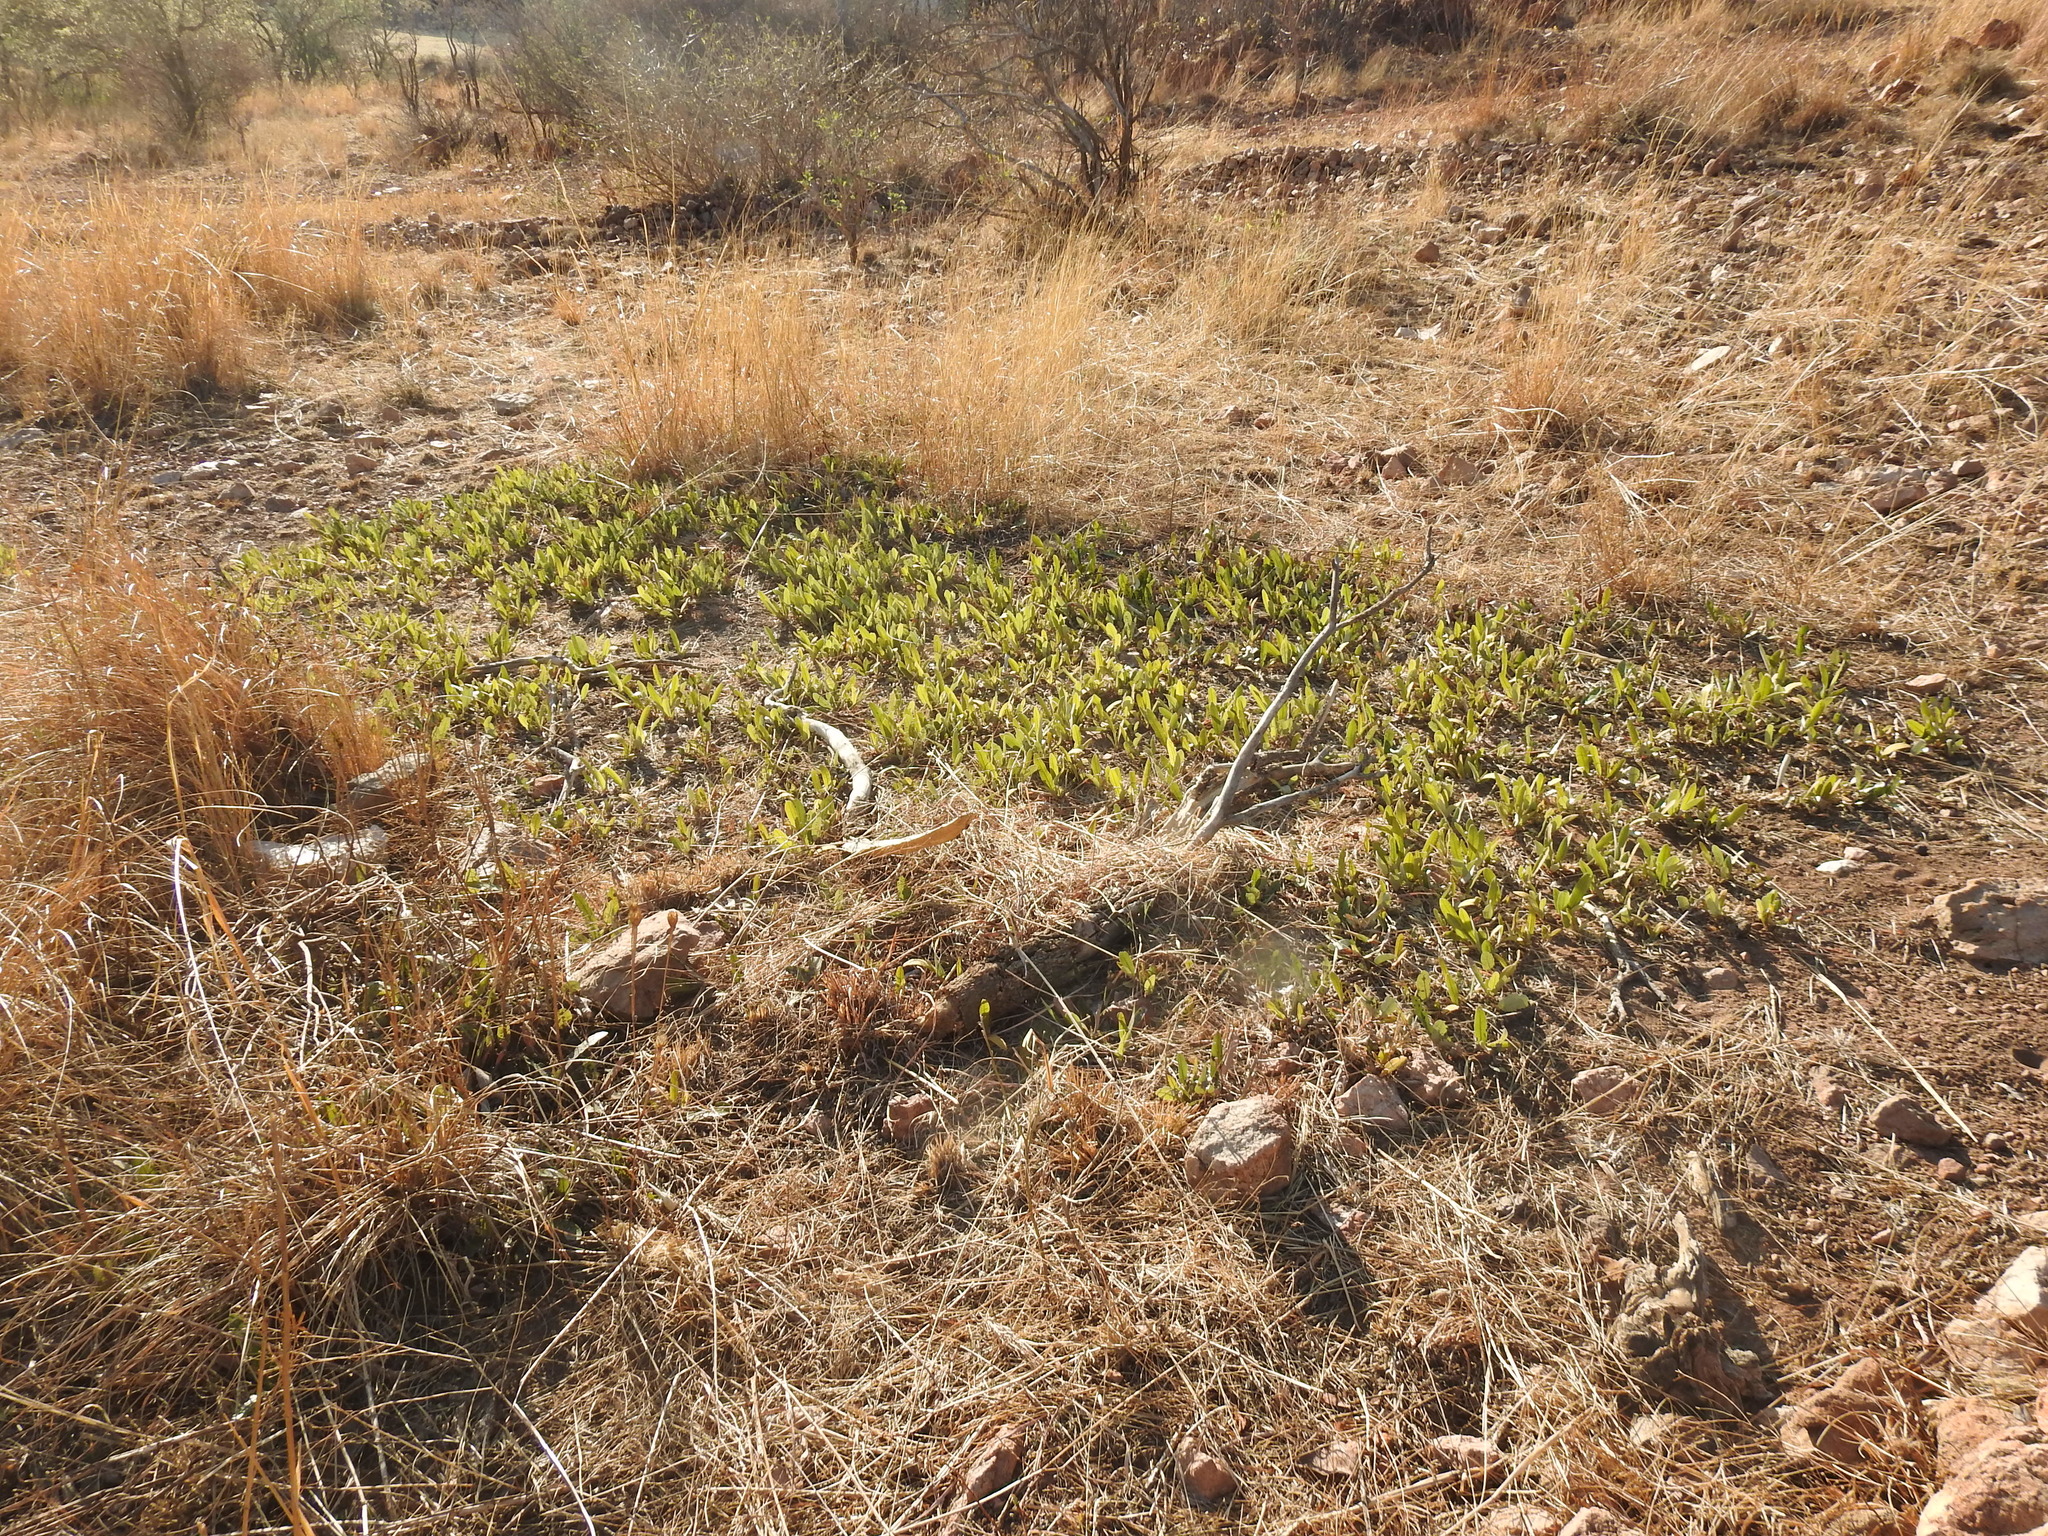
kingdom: Plantae
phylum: Tracheophyta
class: Magnoliopsida
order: Malpighiales
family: Chrysobalanaceae
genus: Parinari
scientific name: Parinari capensis
